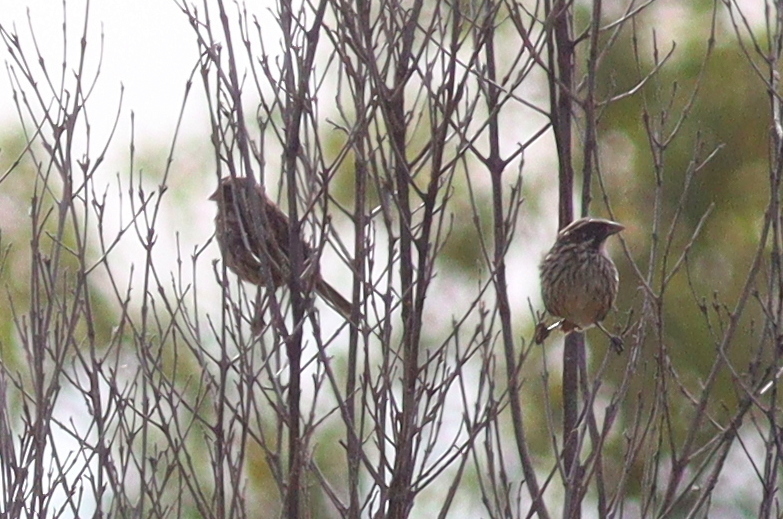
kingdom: Animalia
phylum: Chordata
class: Aves
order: Passeriformes
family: Fringillidae
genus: Crithagra
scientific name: Crithagra striolata
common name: Streaky seedeater
